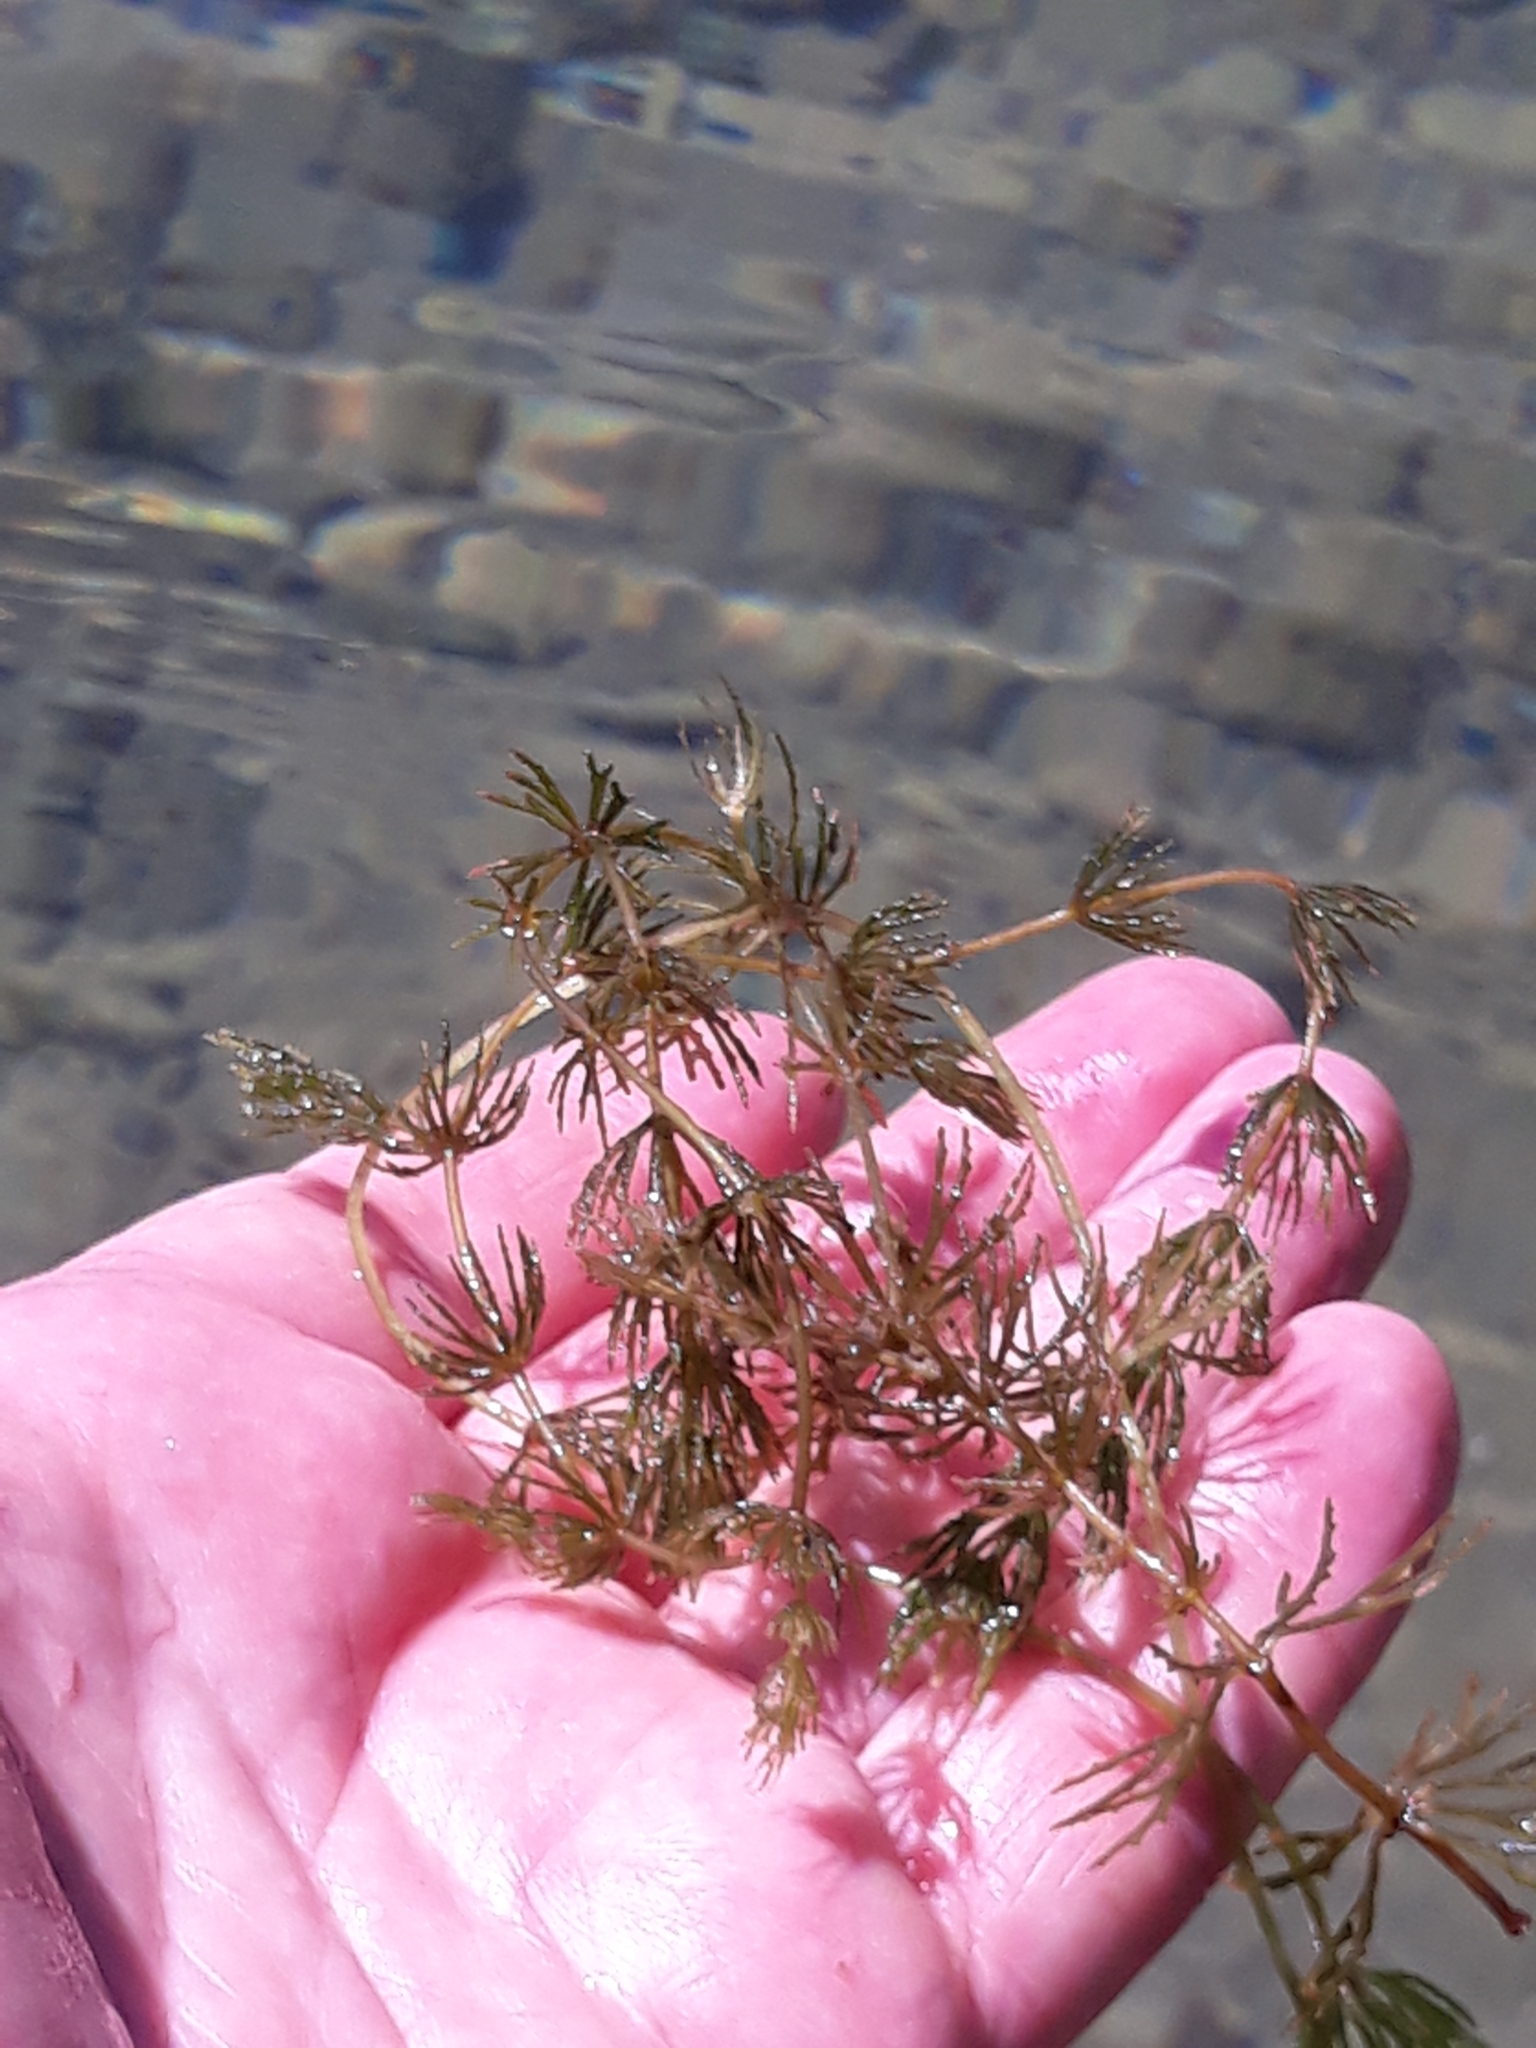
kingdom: Plantae
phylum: Tracheophyta
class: Magnoliopsida
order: Ceratophyllales
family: Ceratophyllaceae
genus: Ceratophyllum
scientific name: Ceratophyllum demersum
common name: Rigid hornwort
